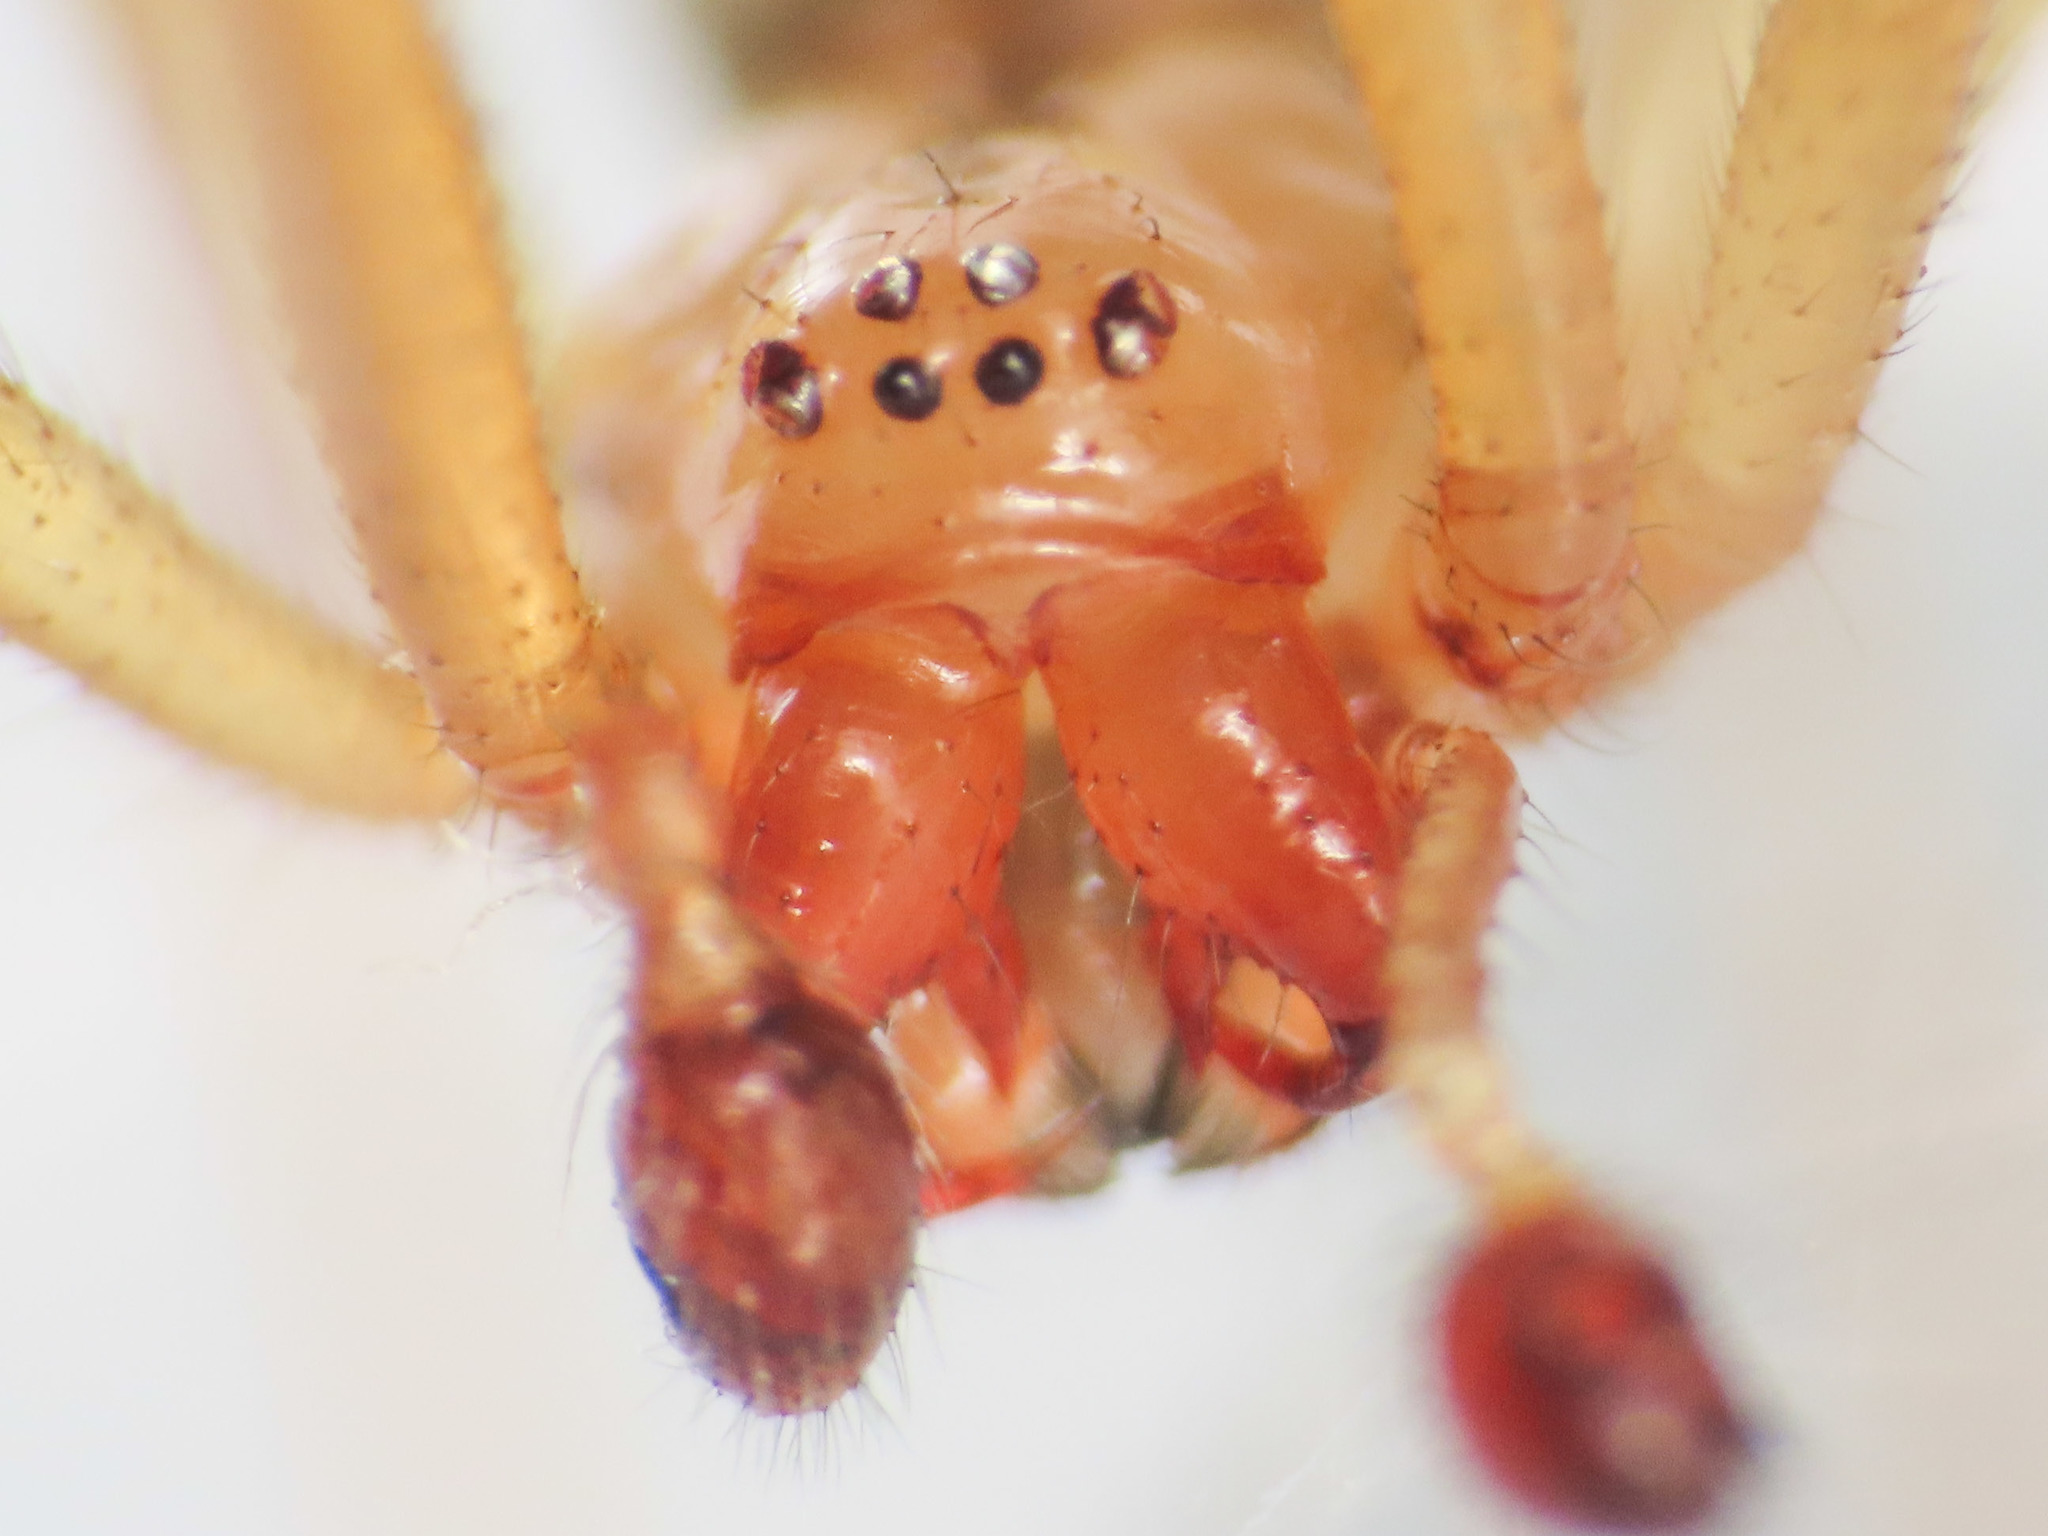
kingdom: Animalia
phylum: Arthropoda
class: Arachnida
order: Araneae
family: Theridiidae
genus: Enoplognatha
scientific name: Enoplognatha afrodite
